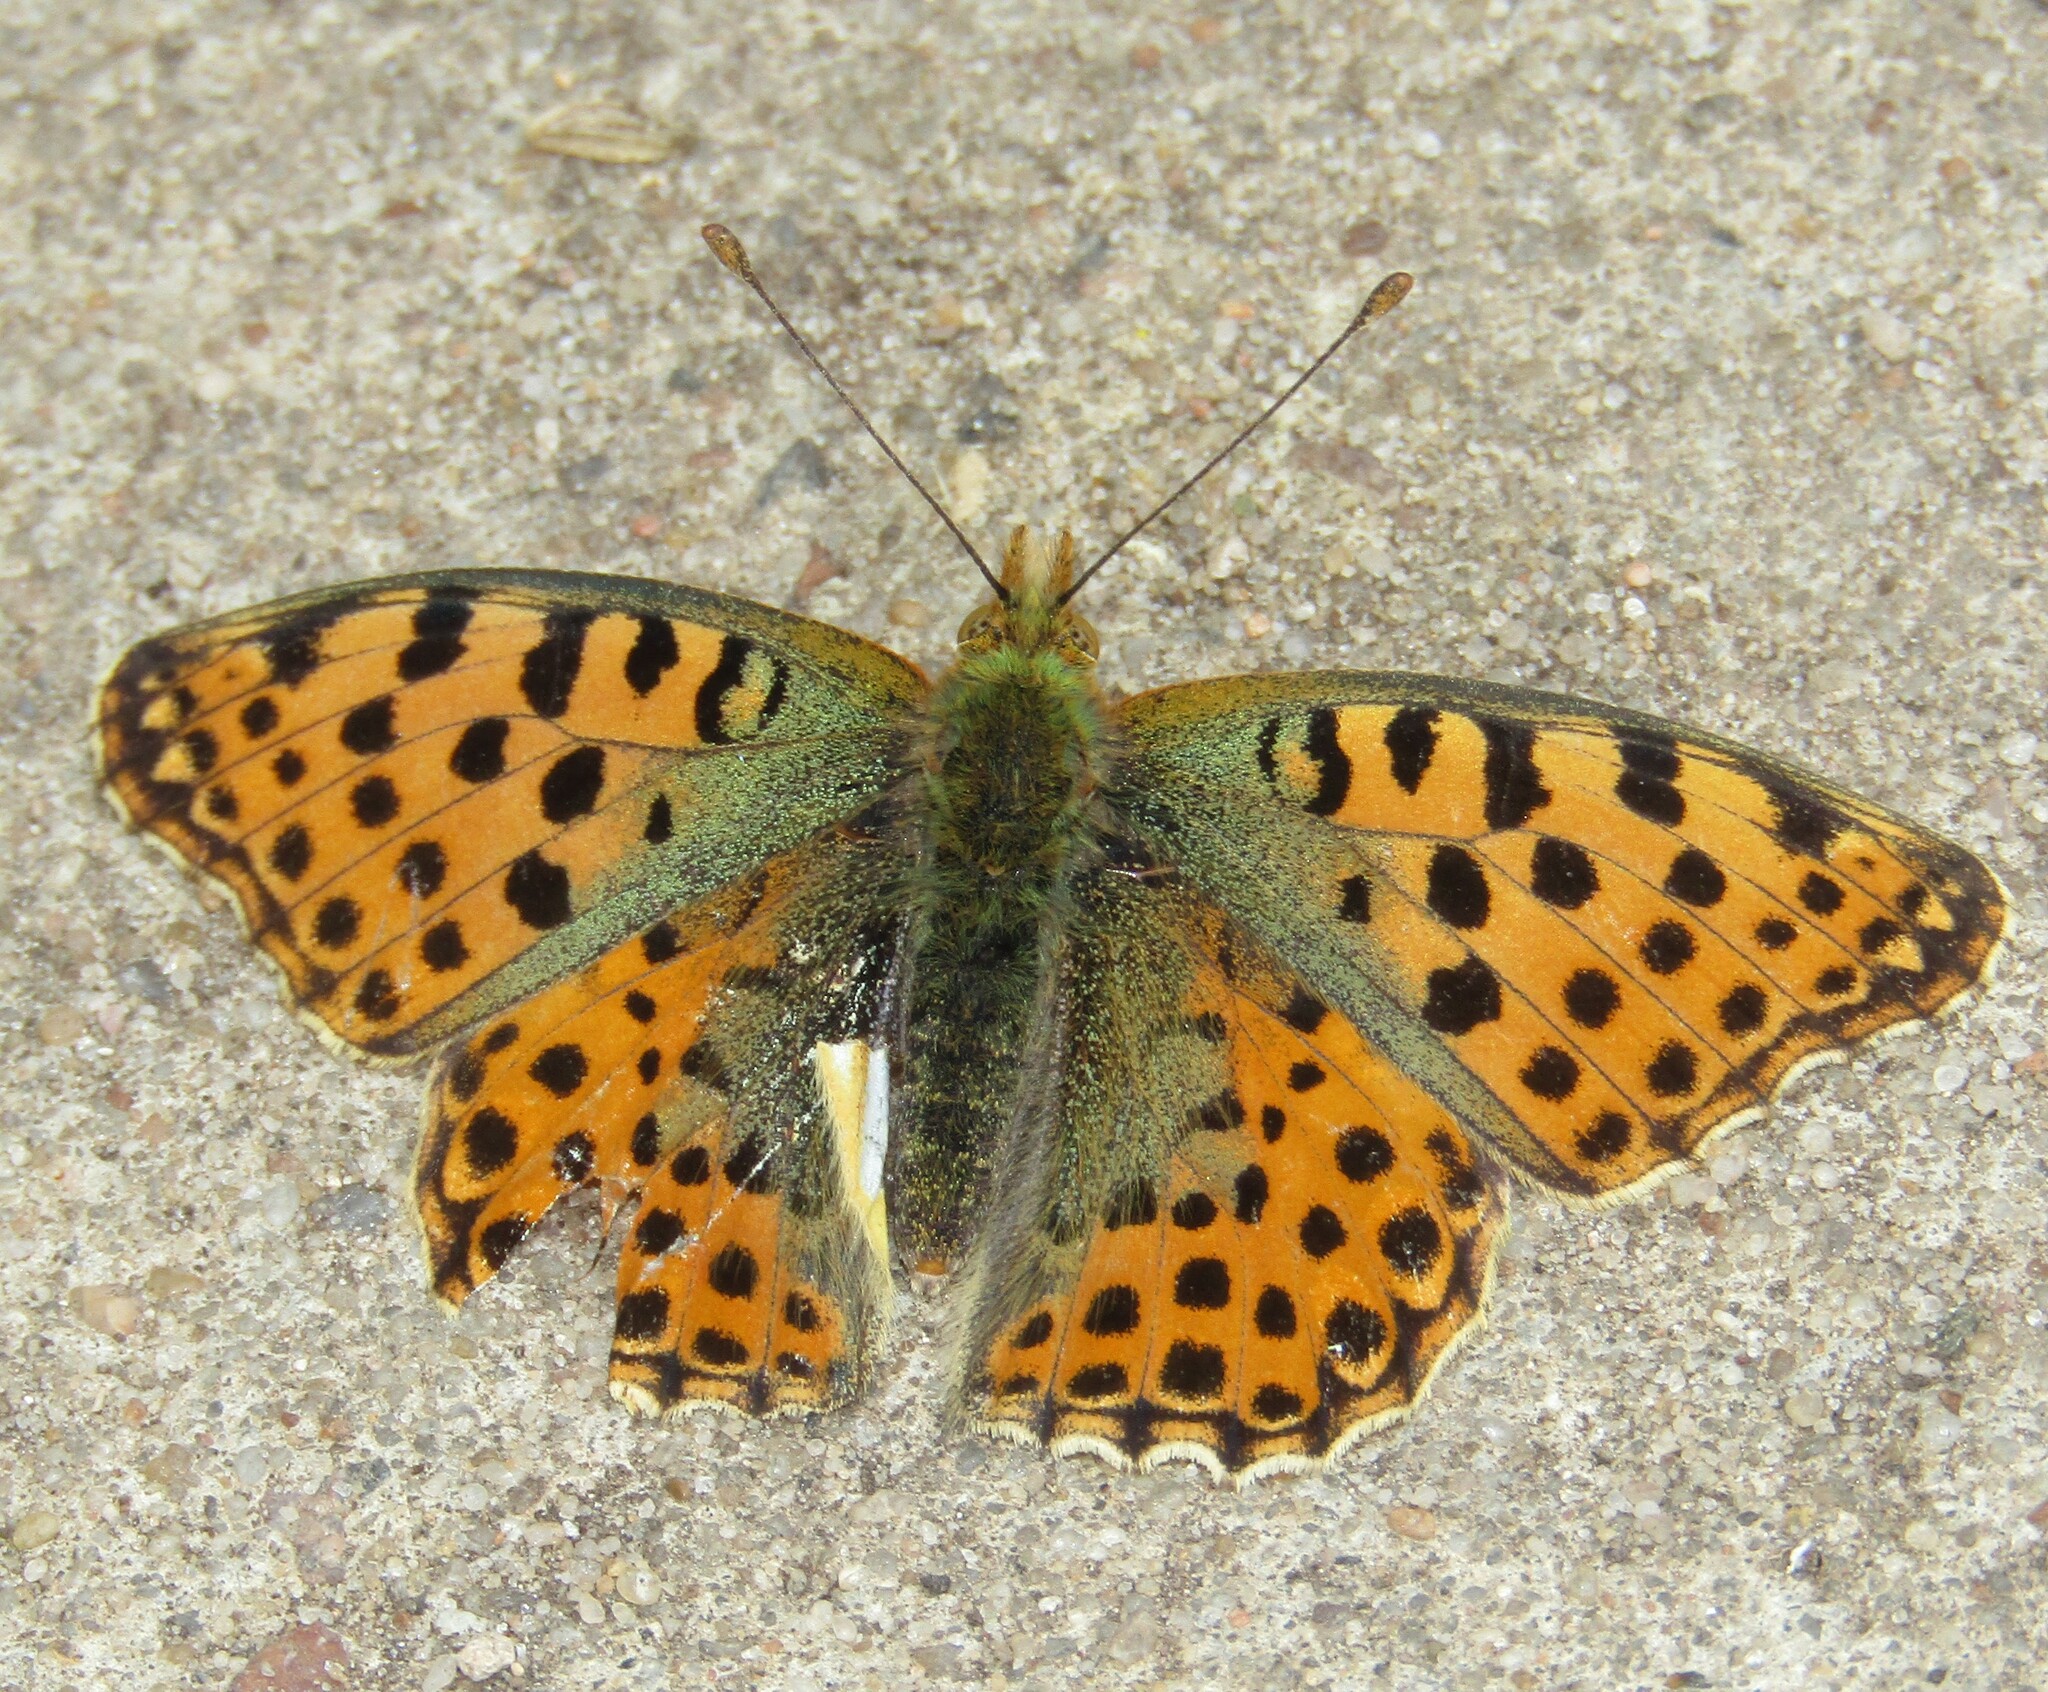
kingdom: Animalia
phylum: Arthropoda
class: Insecta
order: Lepidoptera
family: Nymphalidae
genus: Issoria
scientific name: Issoria lathonia
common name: Queen of spain fritillary
